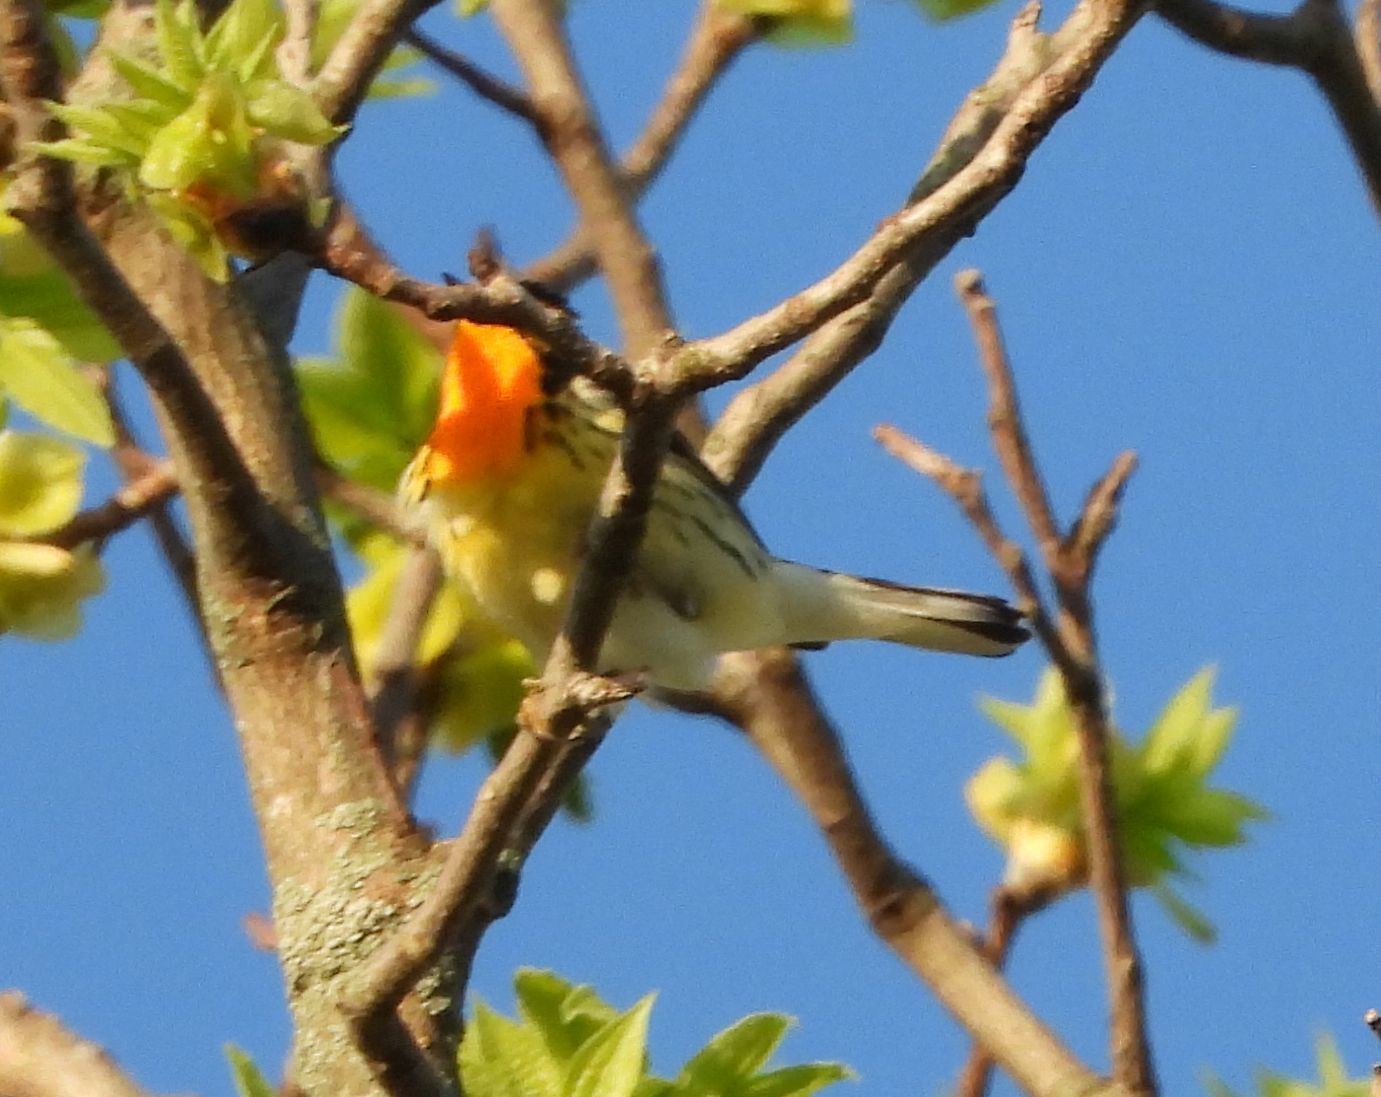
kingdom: Animalia
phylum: Chordata
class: Aves
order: Passeriformes
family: Parulidae
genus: Setophaga
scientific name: Setophaga fusca
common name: Blackburnian warbler
